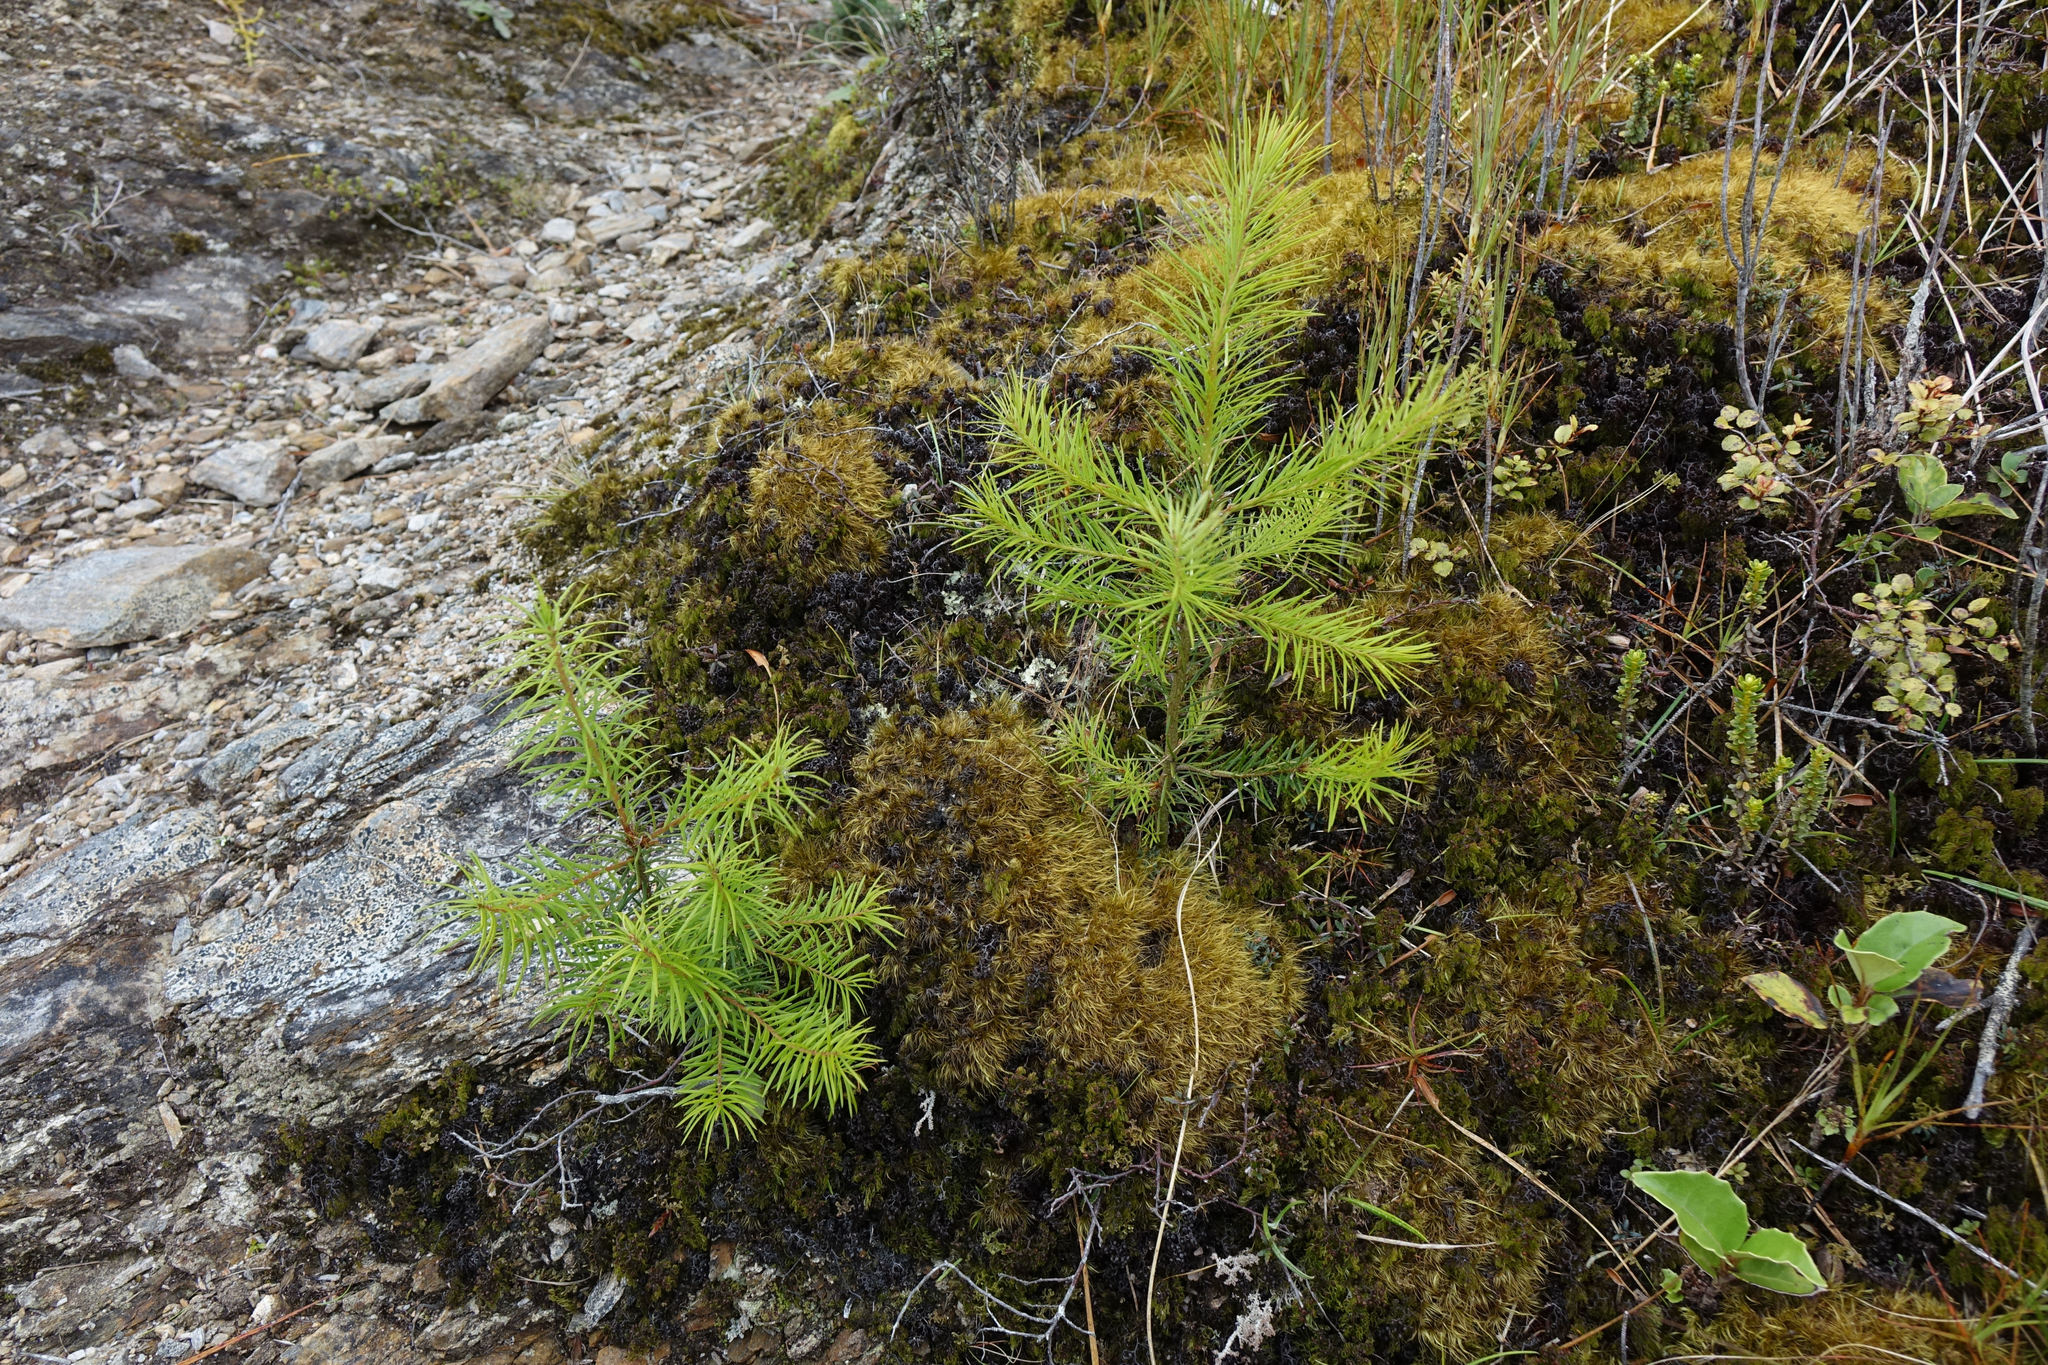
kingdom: Plantae
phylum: Tracheophyta
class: Pinopsida
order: Pinales
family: Pinaceae
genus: Pseudotsuga
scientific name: Pseudotsuga menziesii
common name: Douglas fir
